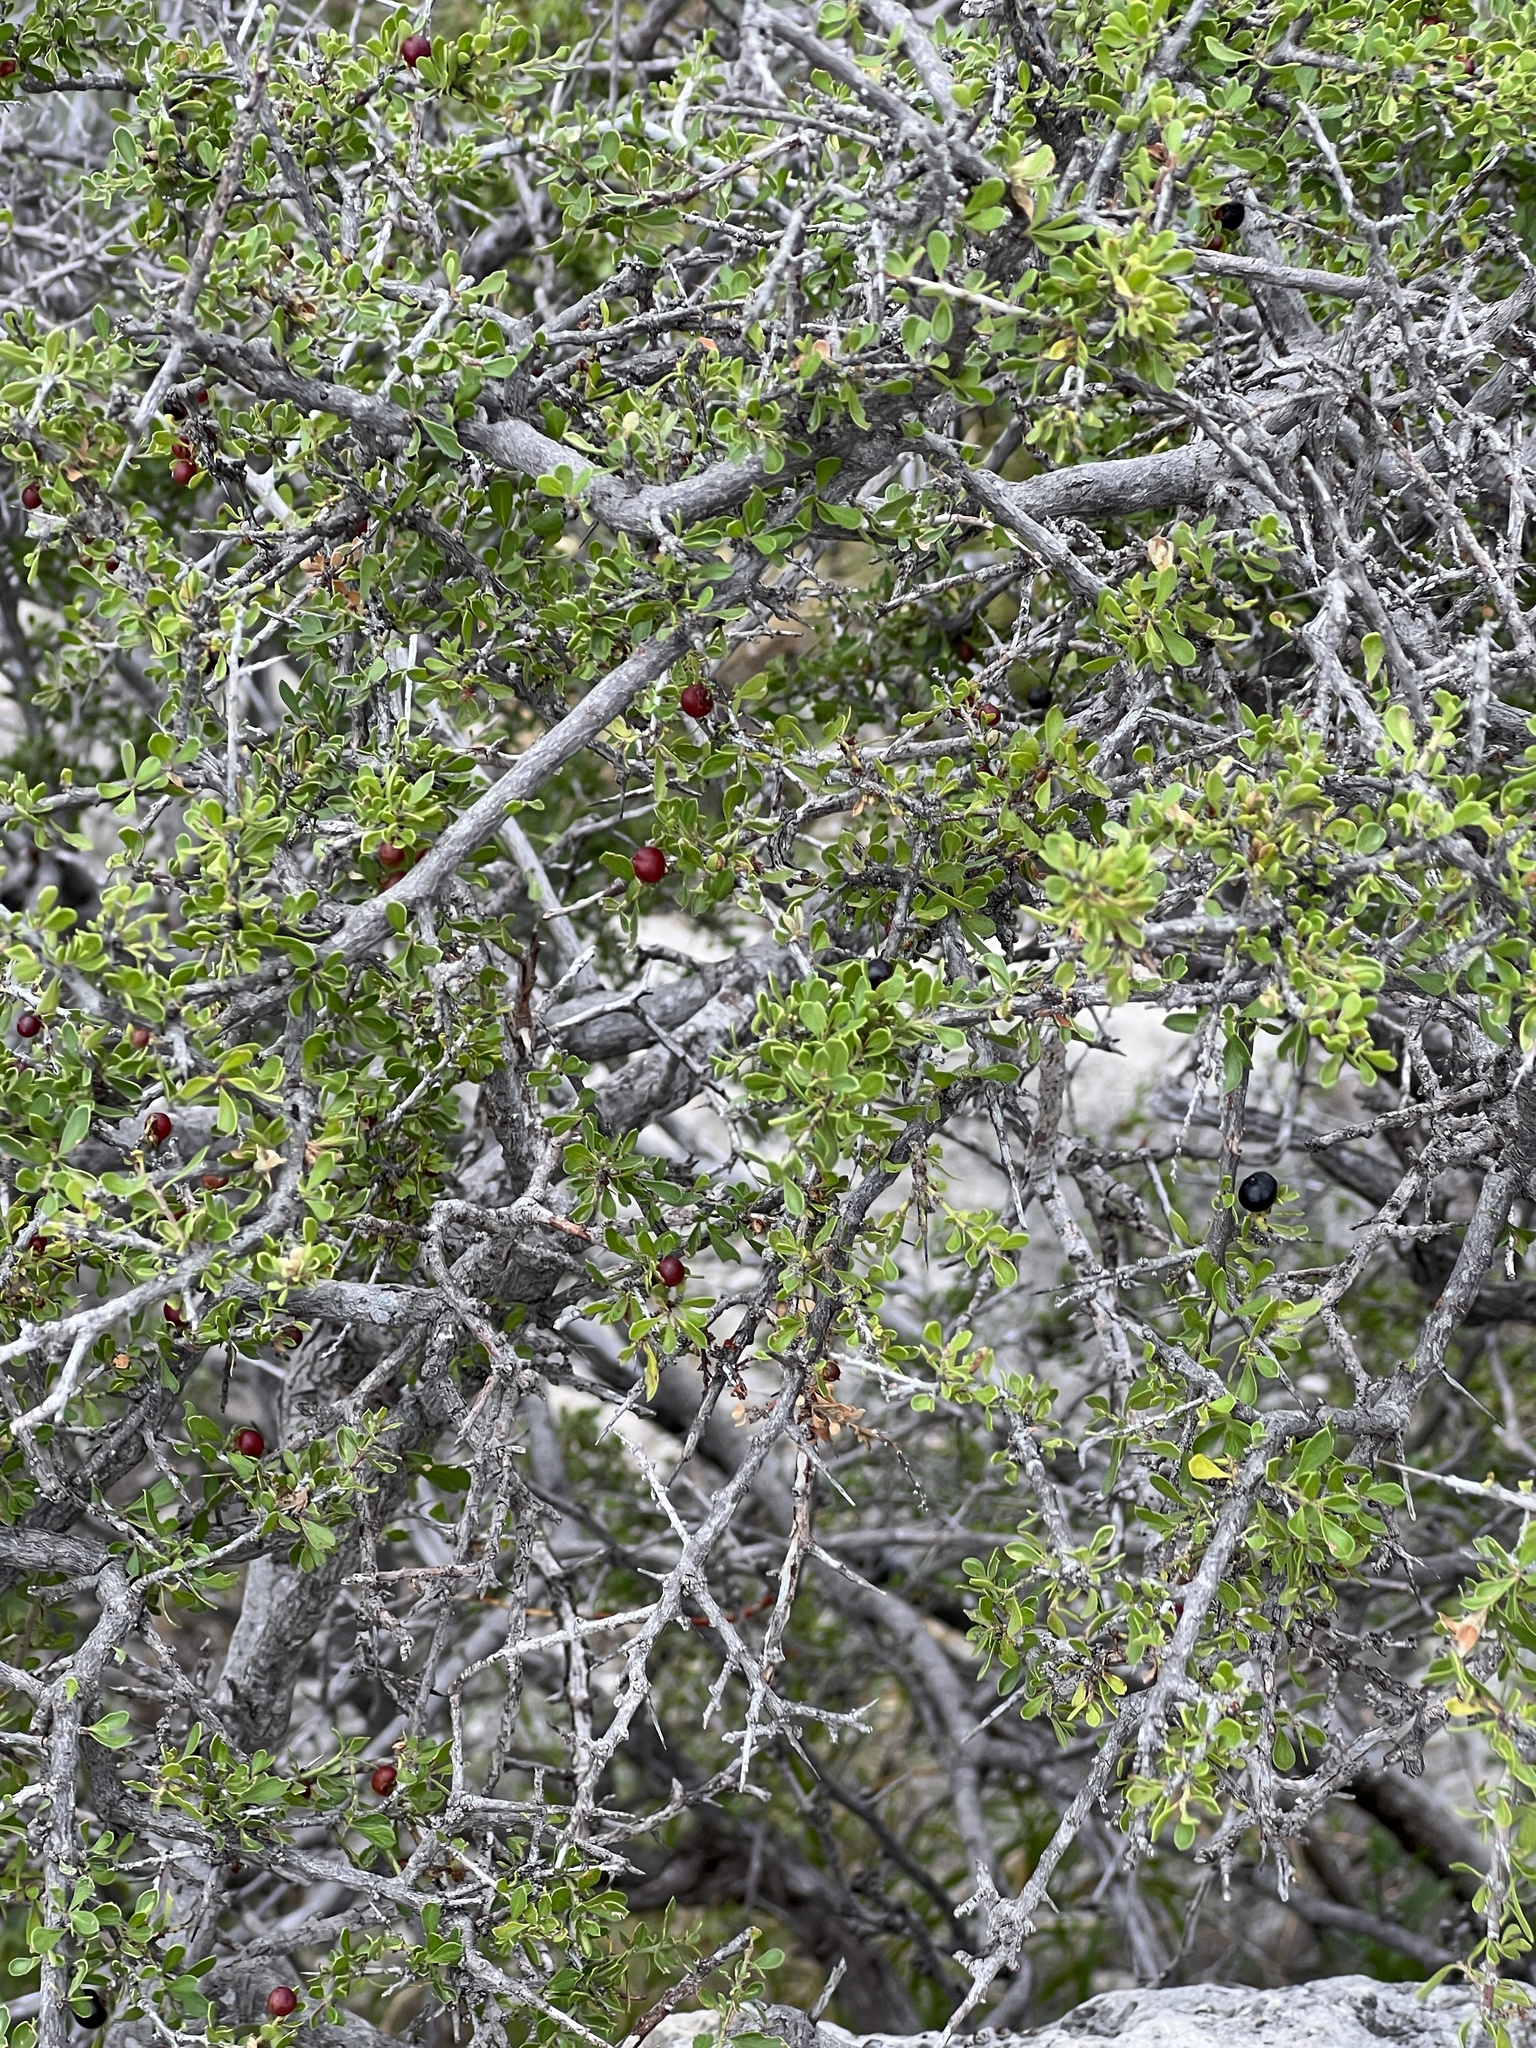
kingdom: Plantae
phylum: Tracheophyta
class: Magnoliopsida
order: Rosales
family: Rhamnaceae
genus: Condalia
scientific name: Condalia viridis
